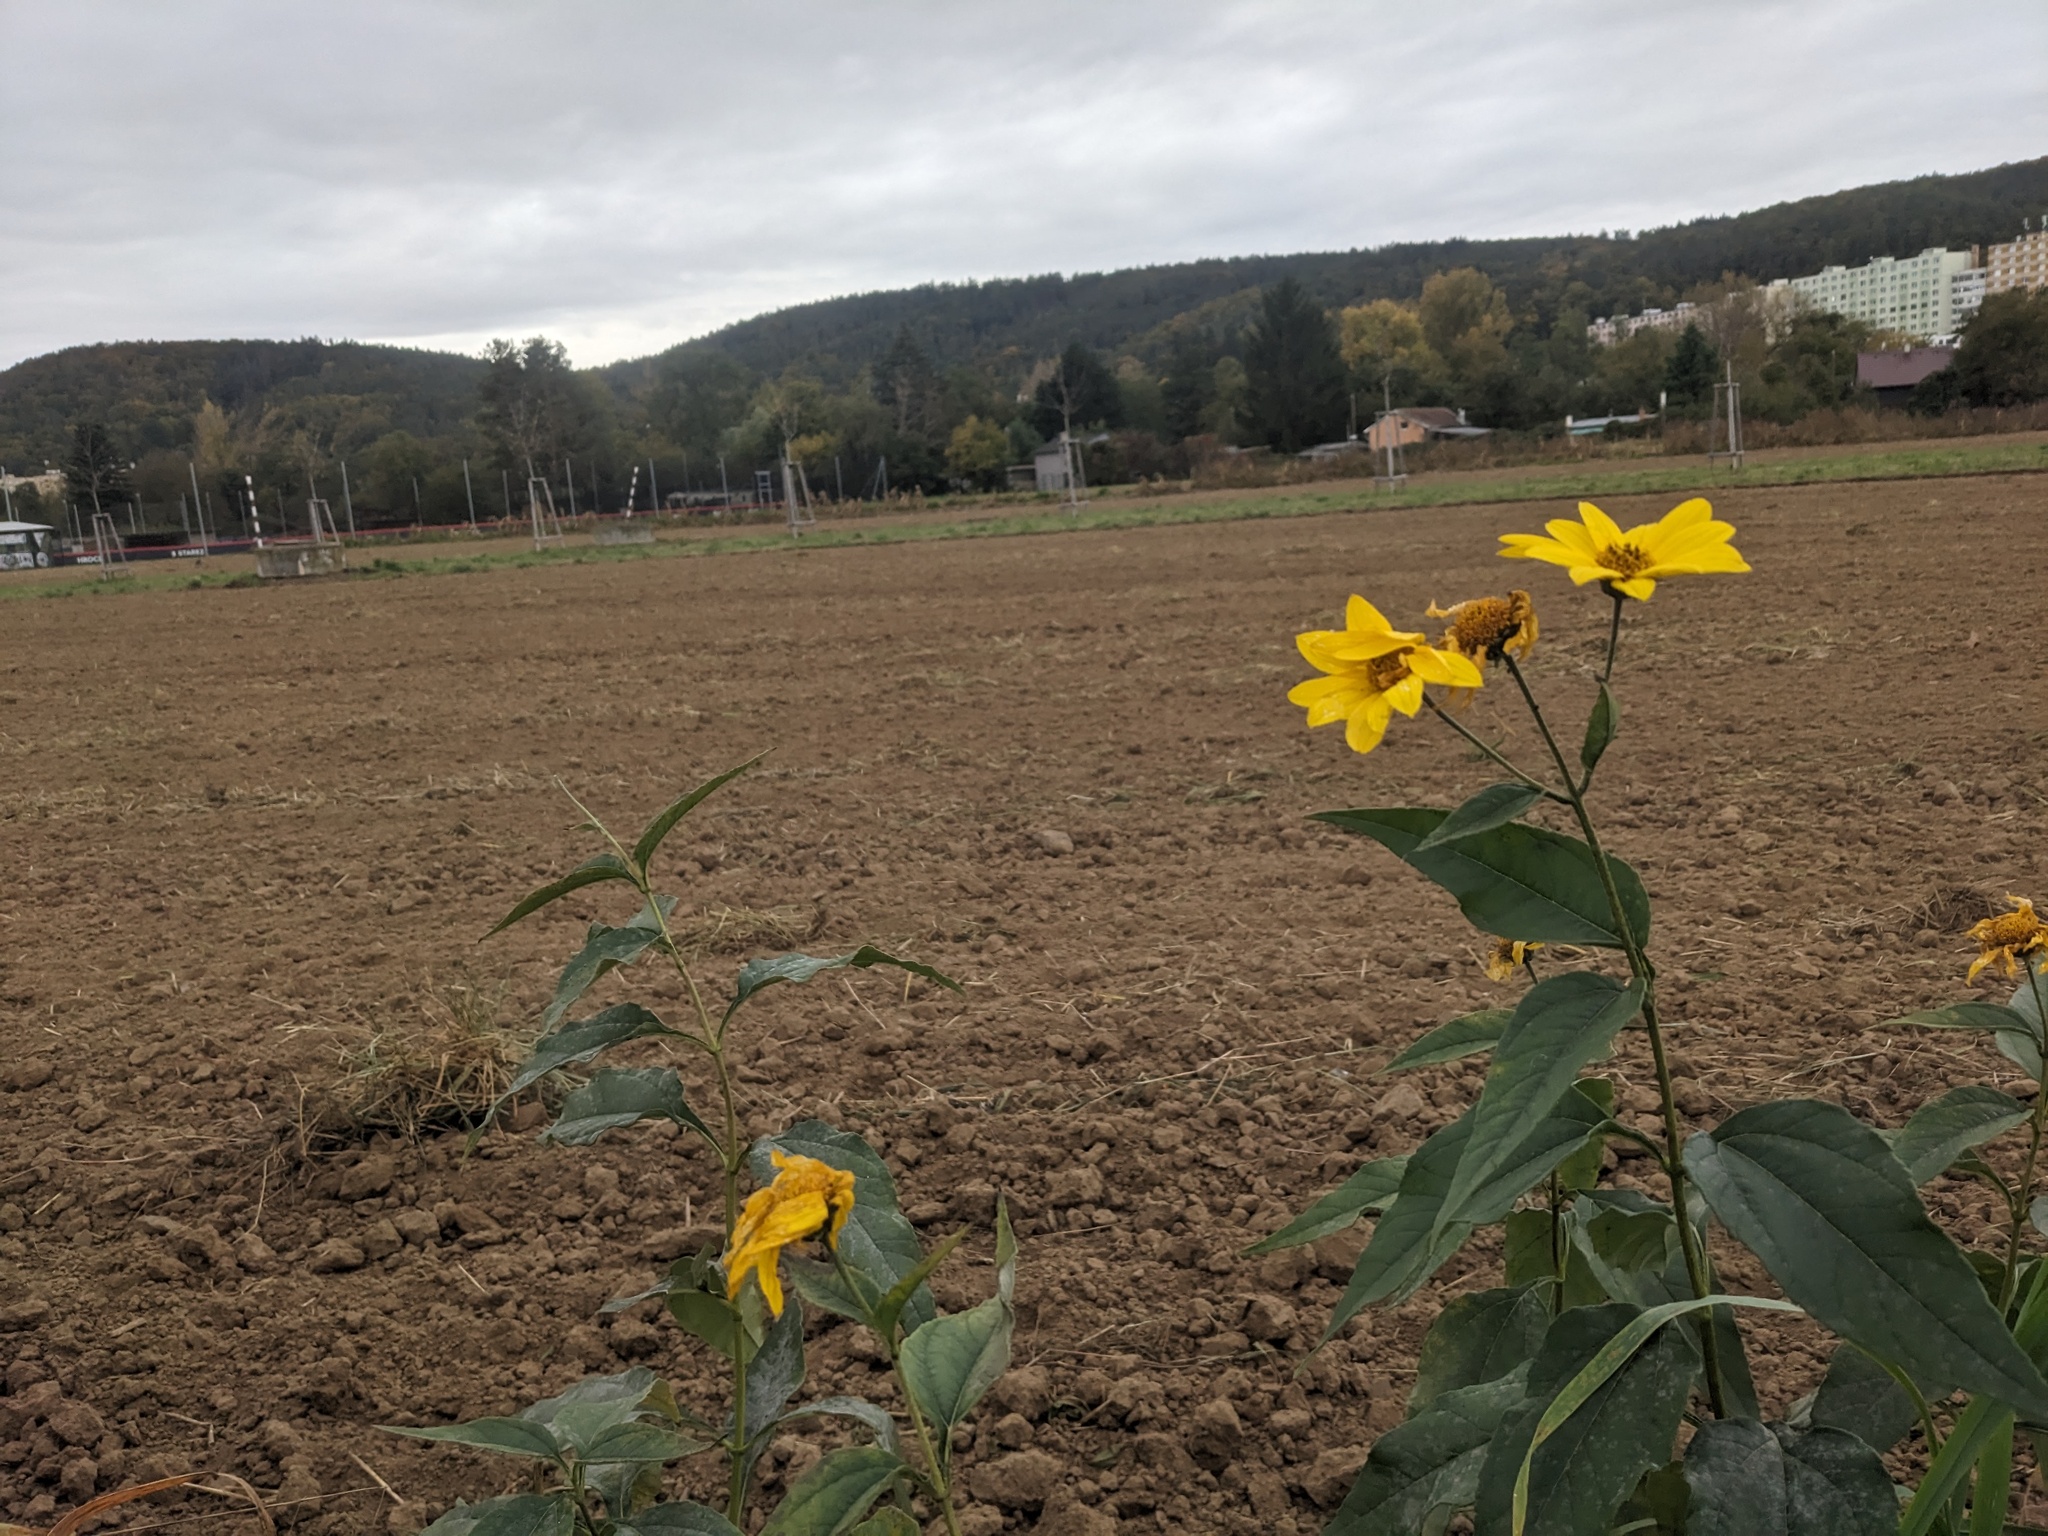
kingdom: Plantae
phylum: Tracheophyta
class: Magnoliopsida
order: Asterales
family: Asteraceae
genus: Helianthus
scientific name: Helianthus tuberosus
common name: Jerusalem artichoke
